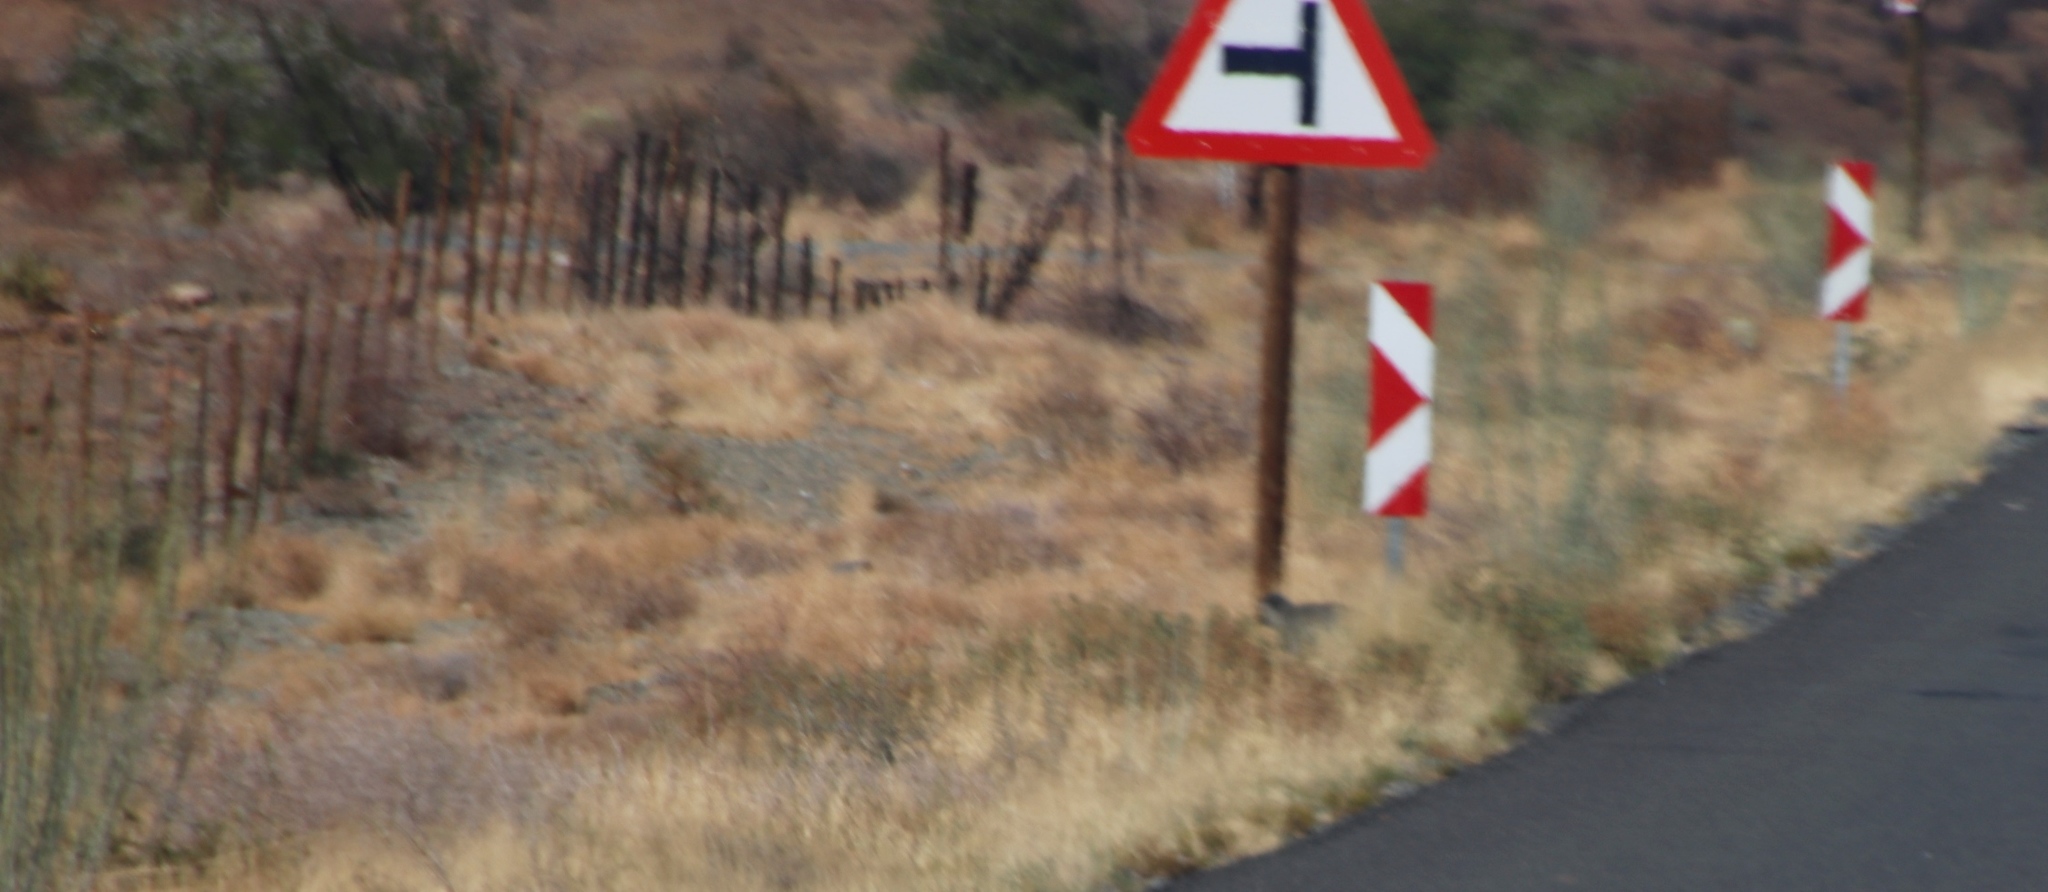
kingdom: Plantae
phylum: Tracheophyta
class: Magnoliopsida
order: Gentianales
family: Apocynaceae
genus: Gomphocarpus
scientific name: Gomphocarpus filiformis
